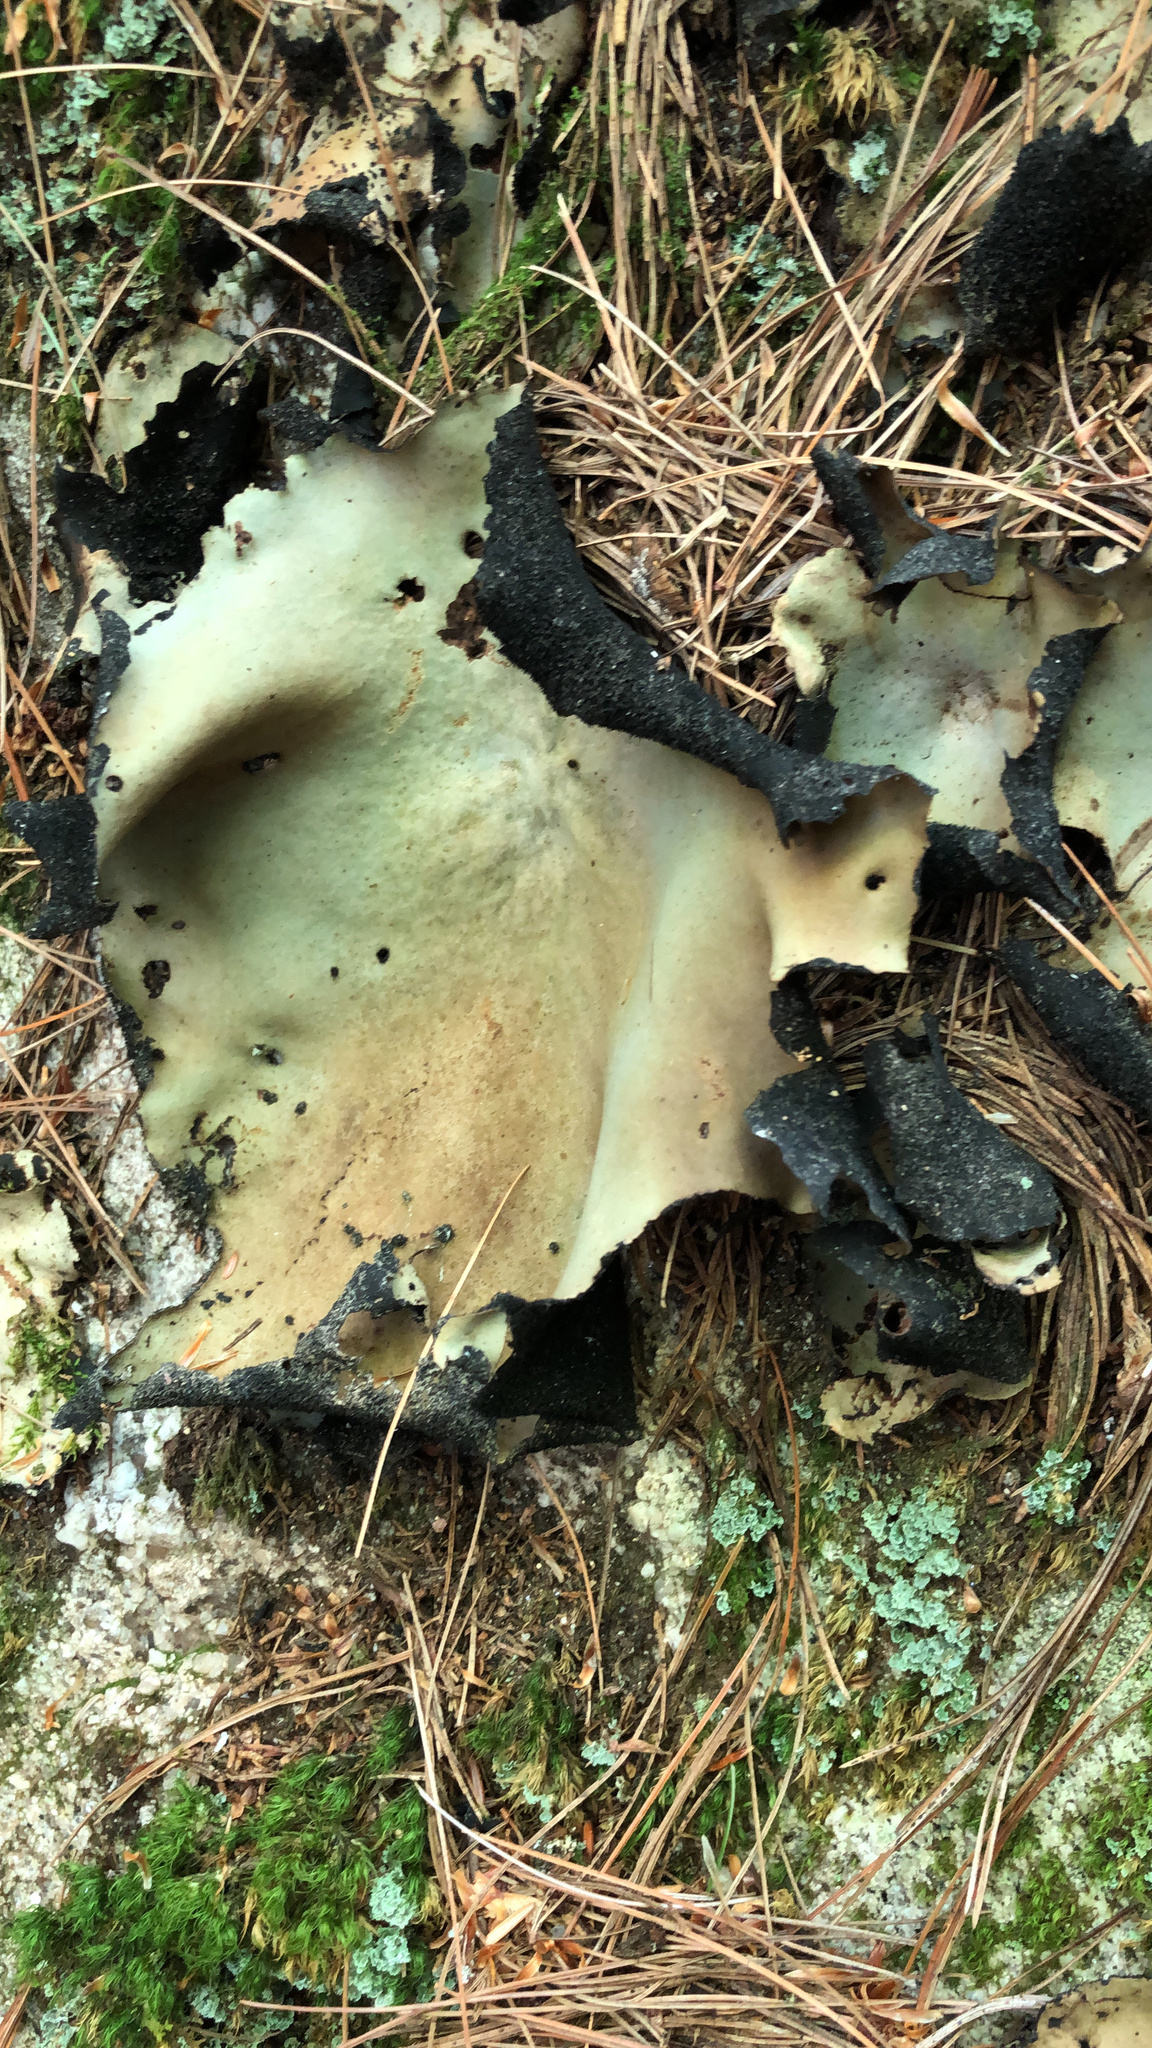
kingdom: Fungi
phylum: Ascomycota
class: Lecanoromycetes
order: Umbilicariales
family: Umbilicariaceae
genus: Umbilicaria
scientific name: Umbilicaria mammulata
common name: Smooth rock tripe
